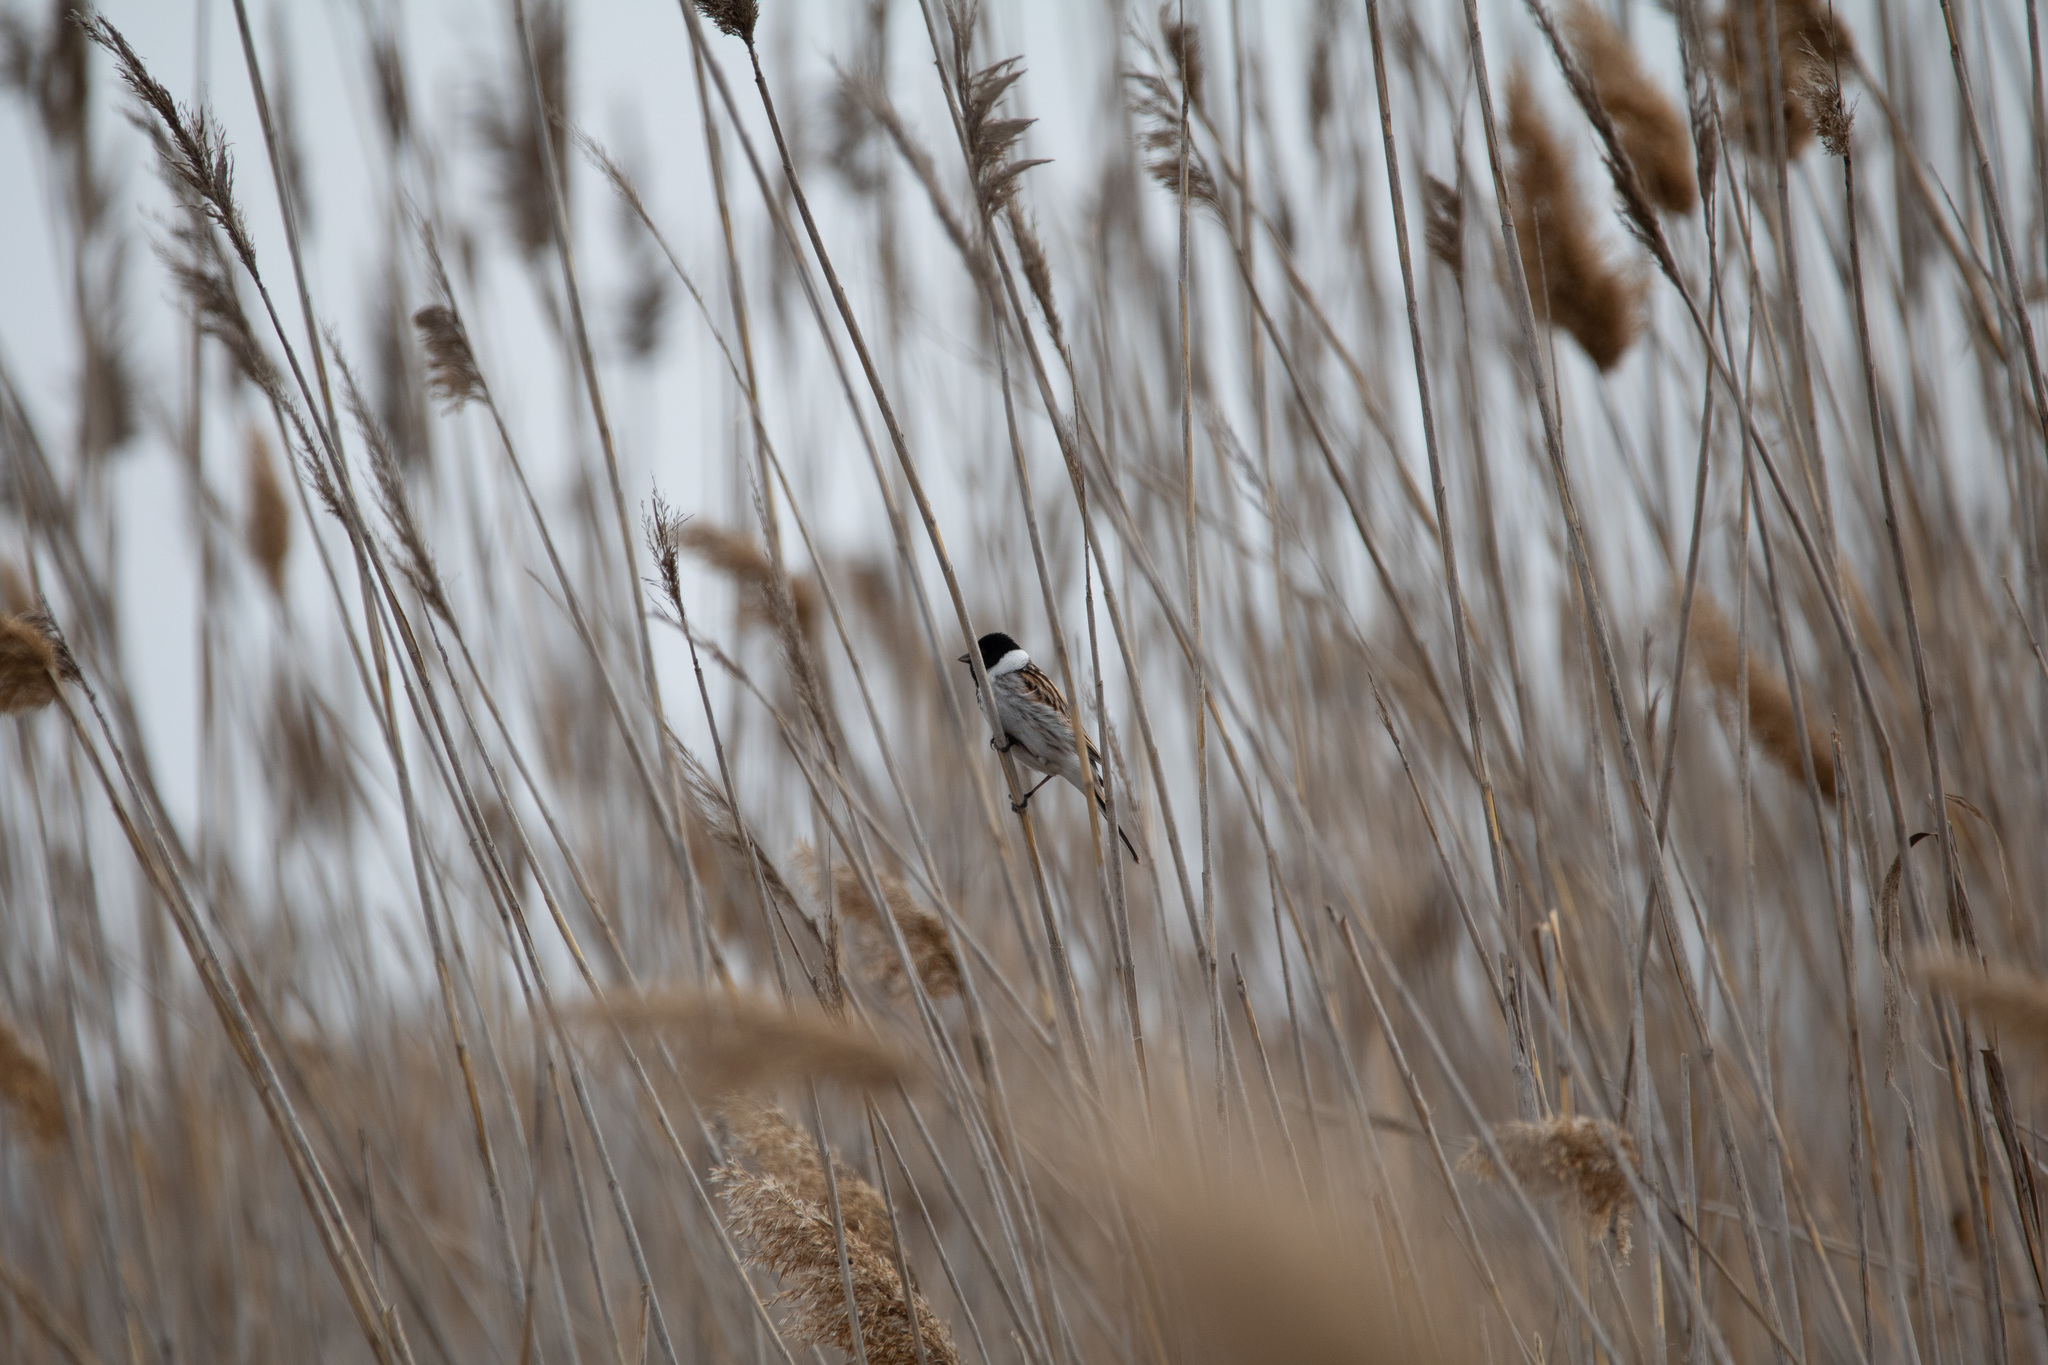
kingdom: Animalia
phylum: Chordata
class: Aves
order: Passeriformes
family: Emberizidae
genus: Emberiza
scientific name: Emberiza schoeniclus
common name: Reed bunting
